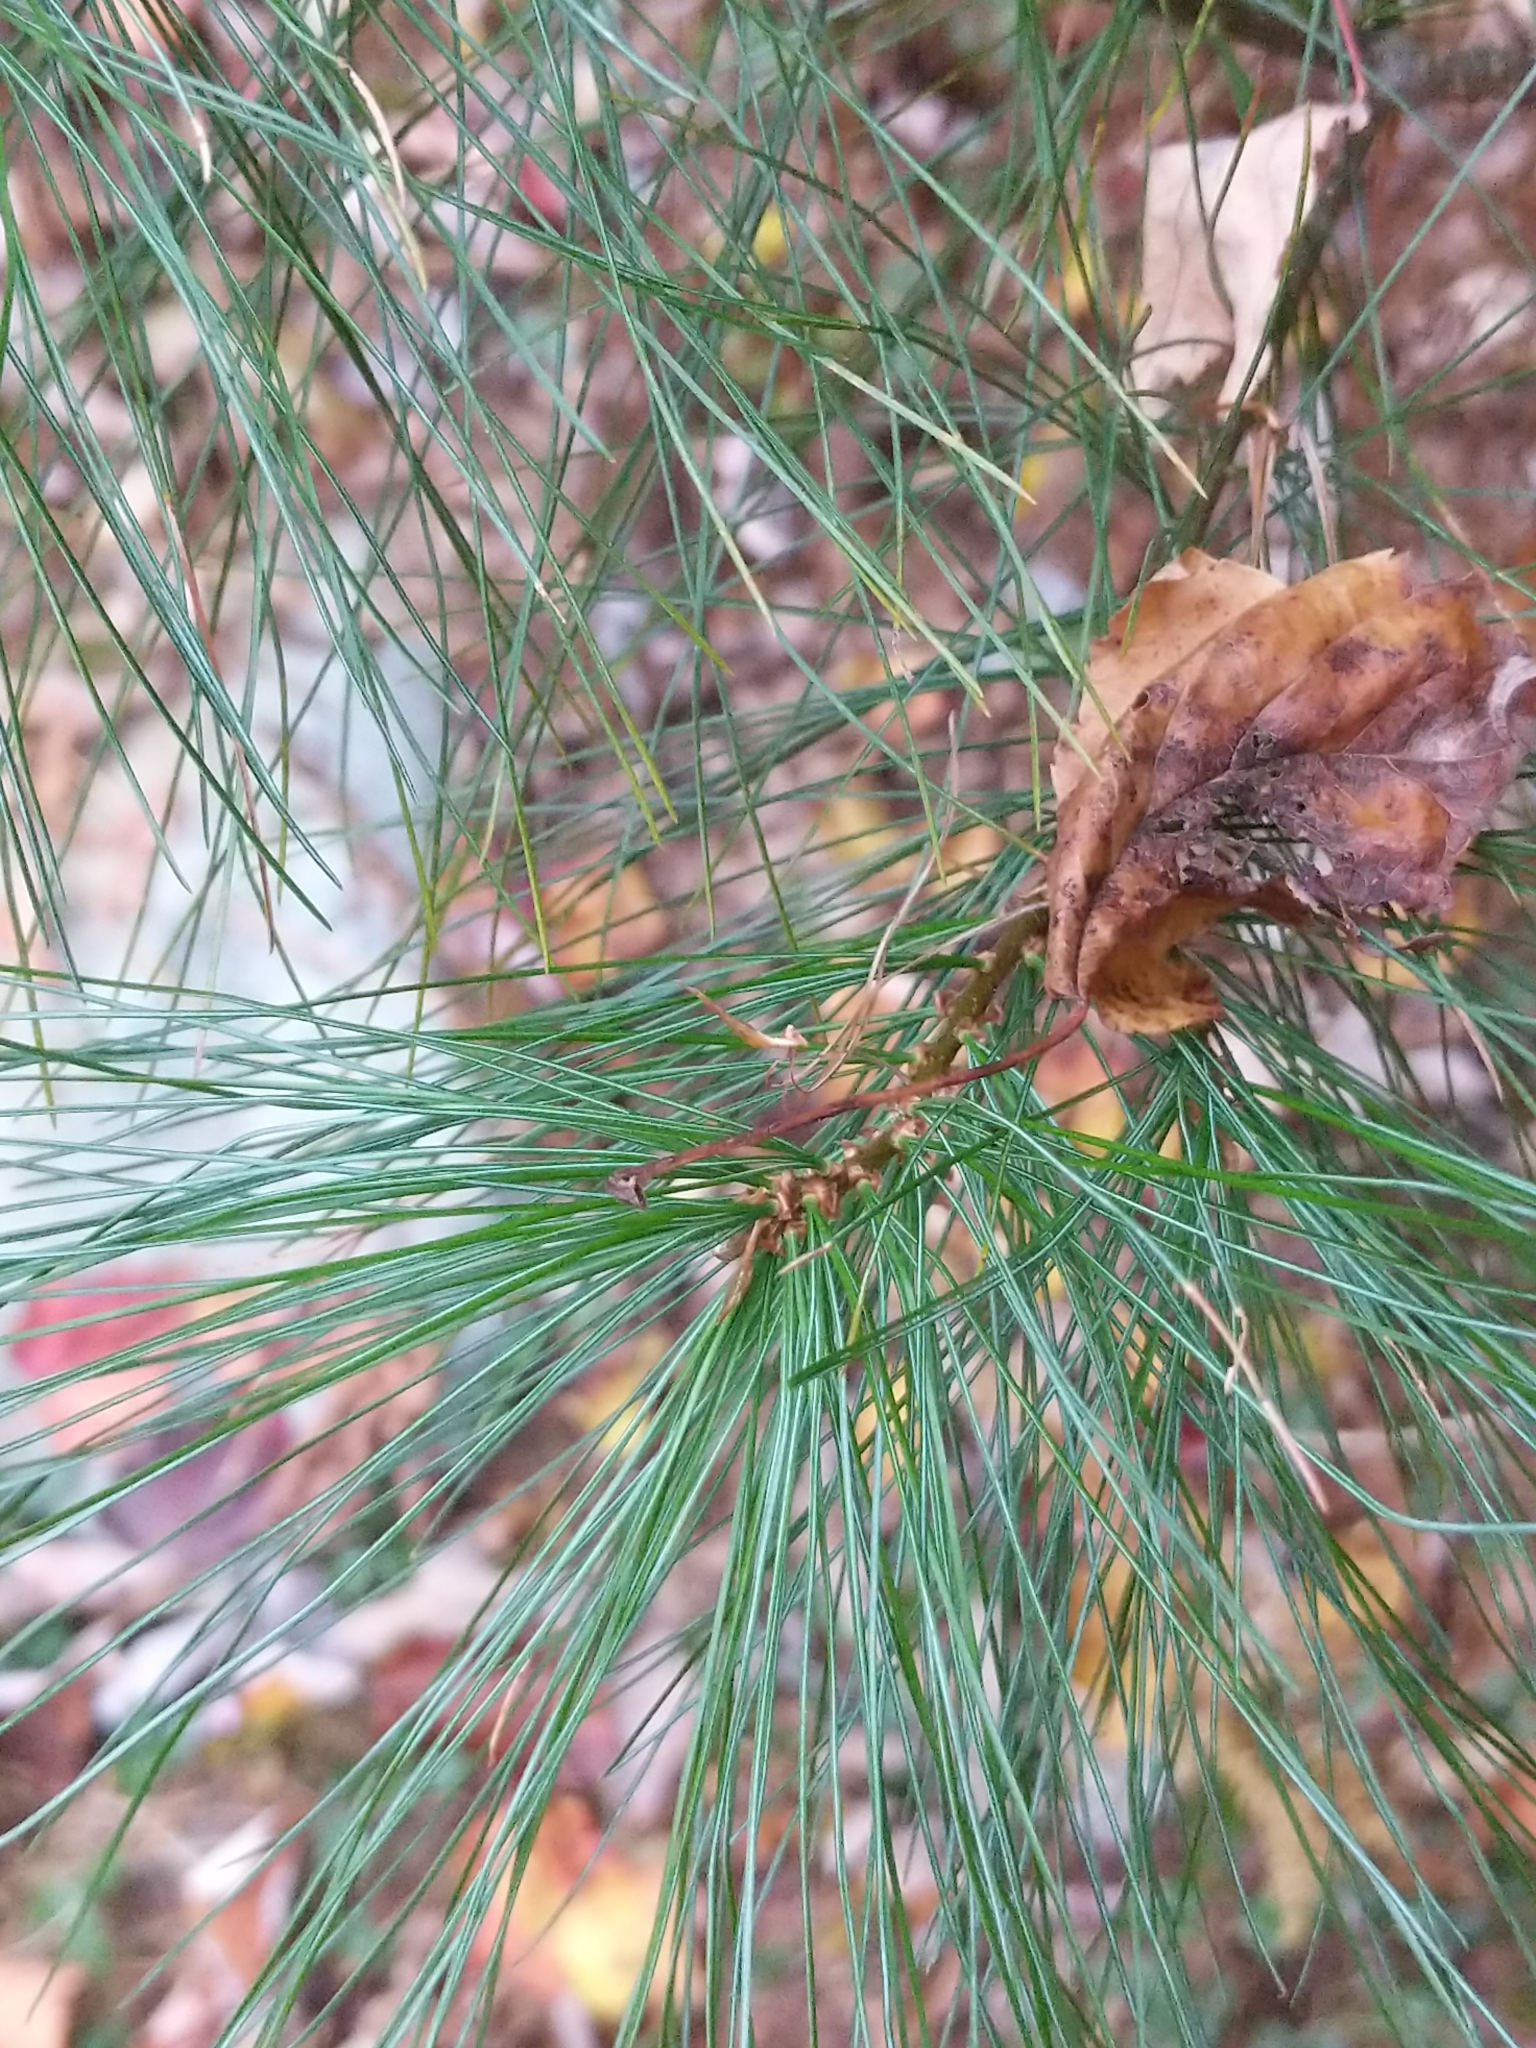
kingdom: Plantae
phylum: Tracheophyta
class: Pinopsida
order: Pinales
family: Pinaceae
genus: Pinus
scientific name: Pinus strobus
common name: Weymouth pine
